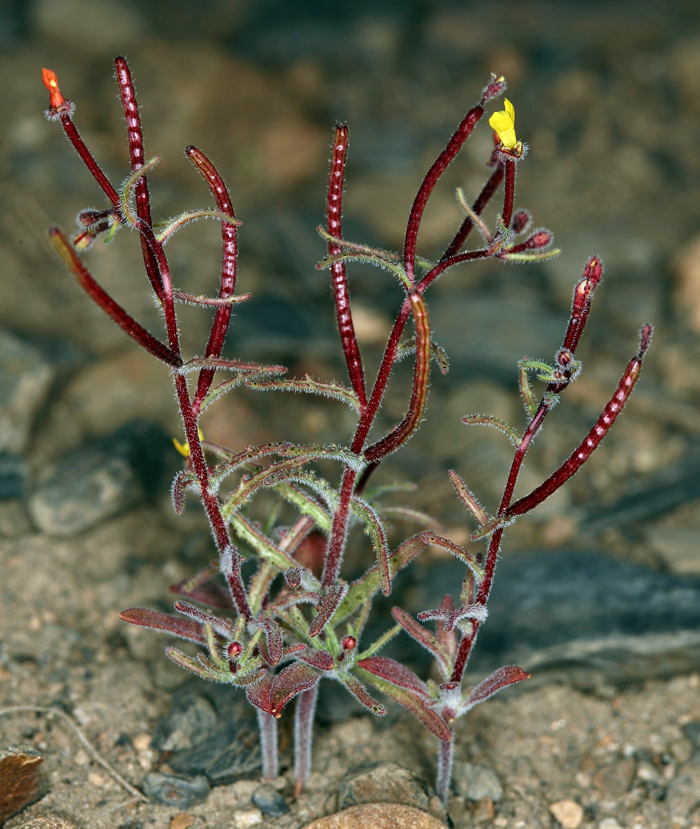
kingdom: Plantae
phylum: Tracheophyta
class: Magnoliopsida
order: Myrtales
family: Onagraceae
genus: Camissonia
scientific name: Camissonia pusilla
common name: Obscure camissonia
